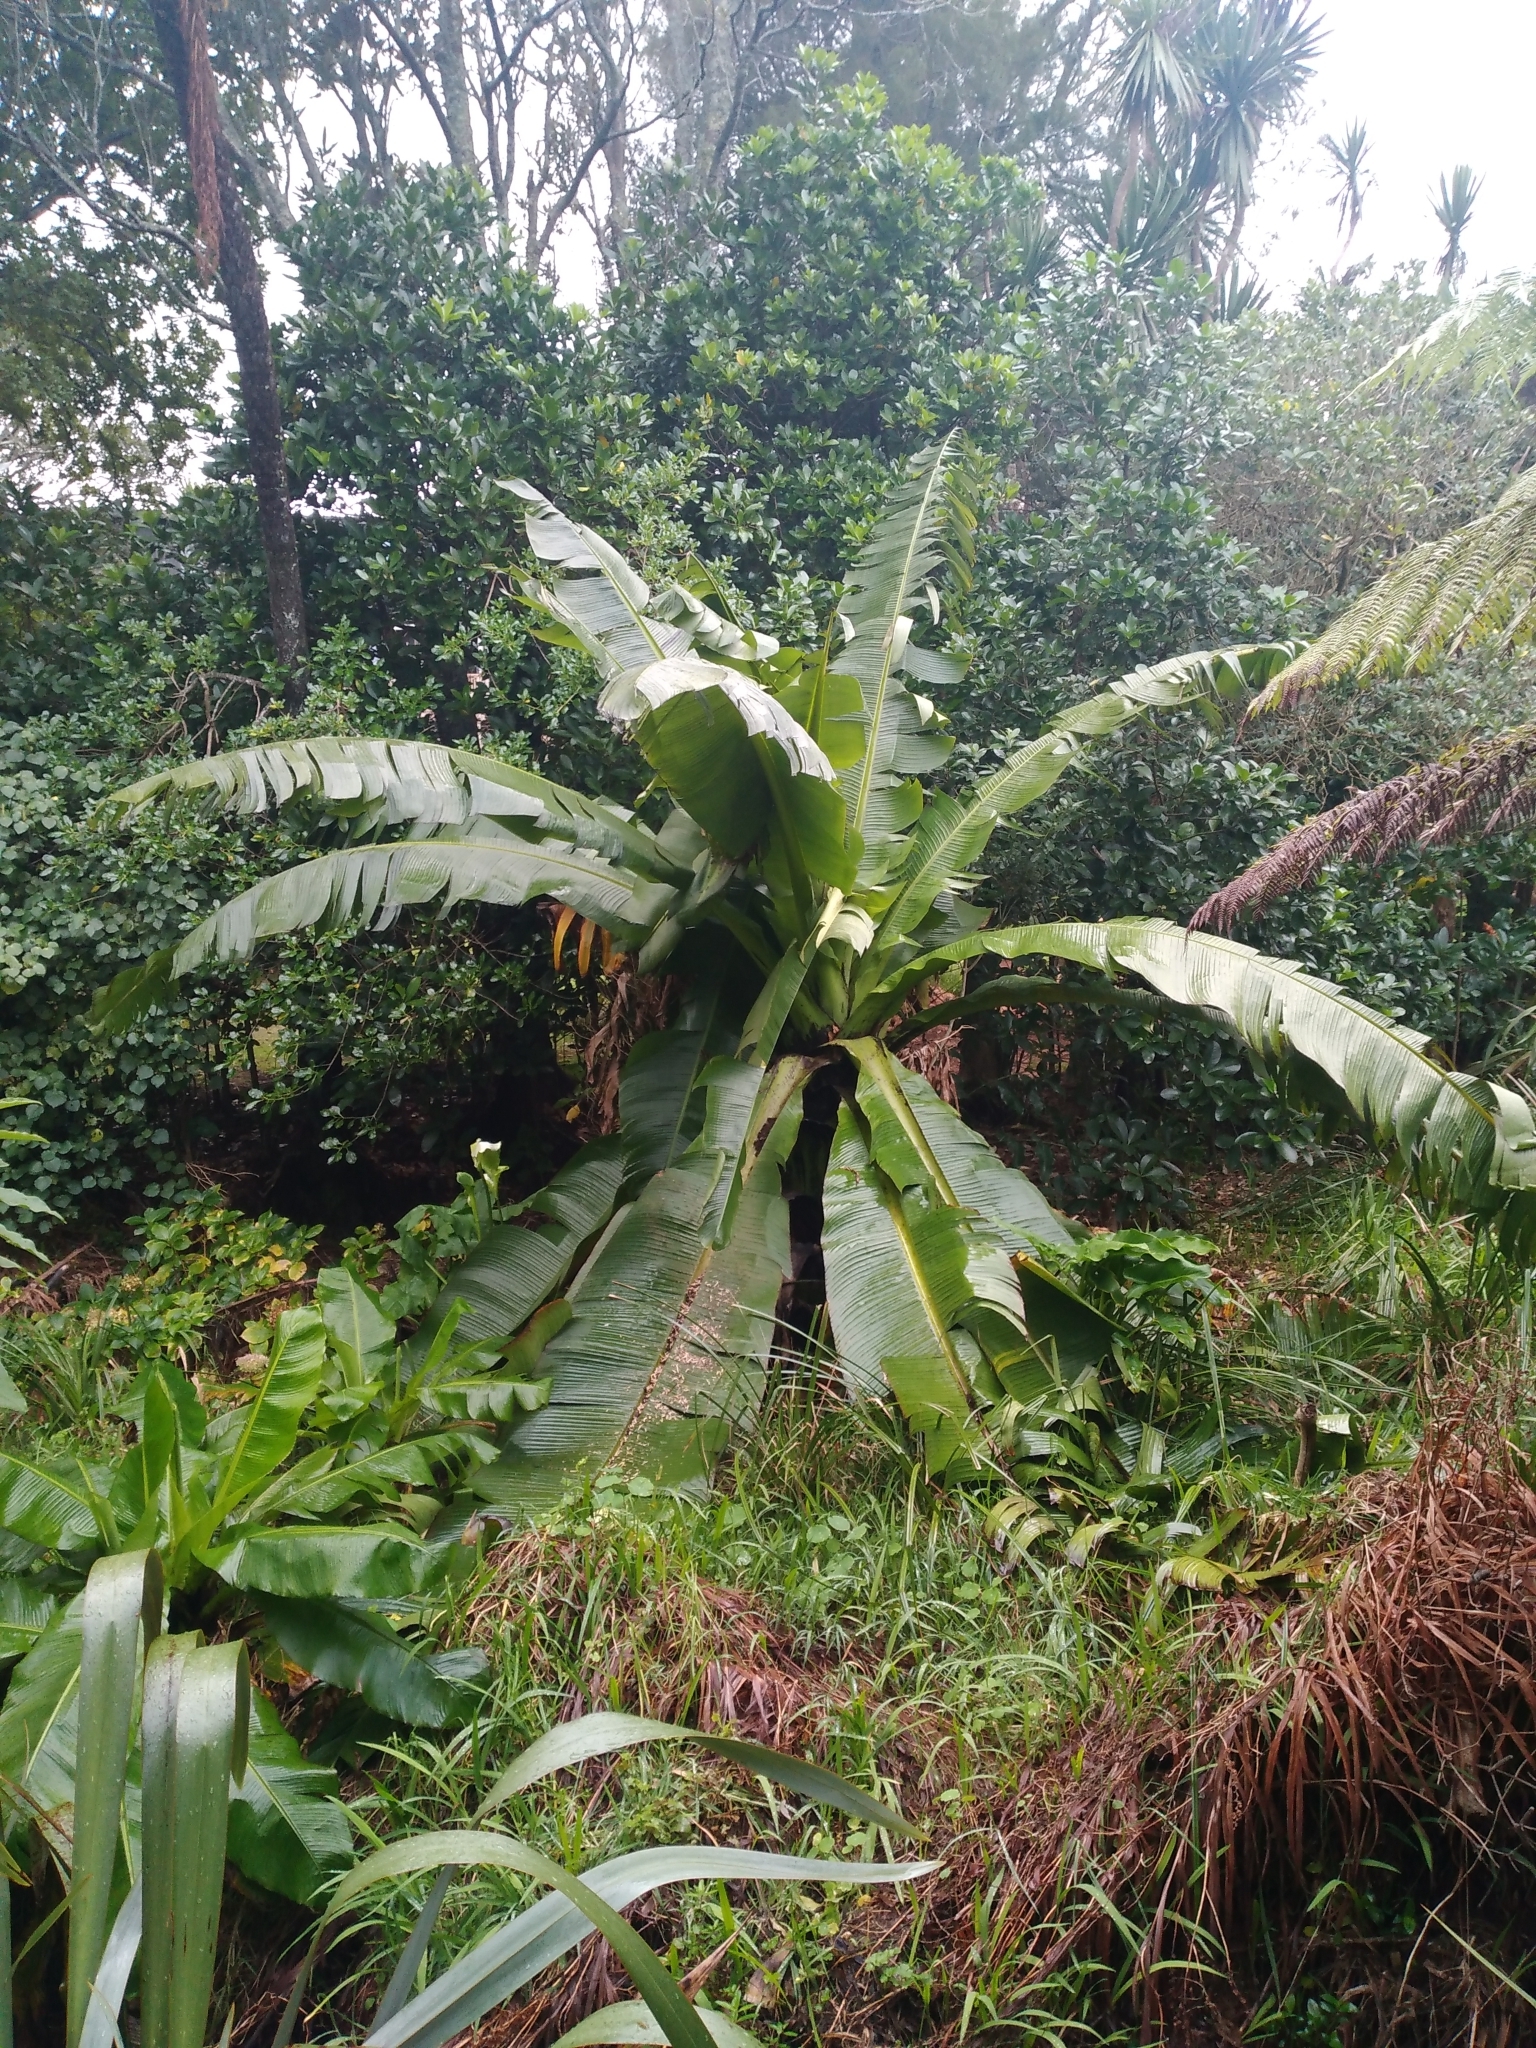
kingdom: Plantae
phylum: Tracheophyta
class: Liliopsida
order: Zingiberales
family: Musaceae
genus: Ensete
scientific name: Ensete ventricosum
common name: Abyssinian banana
